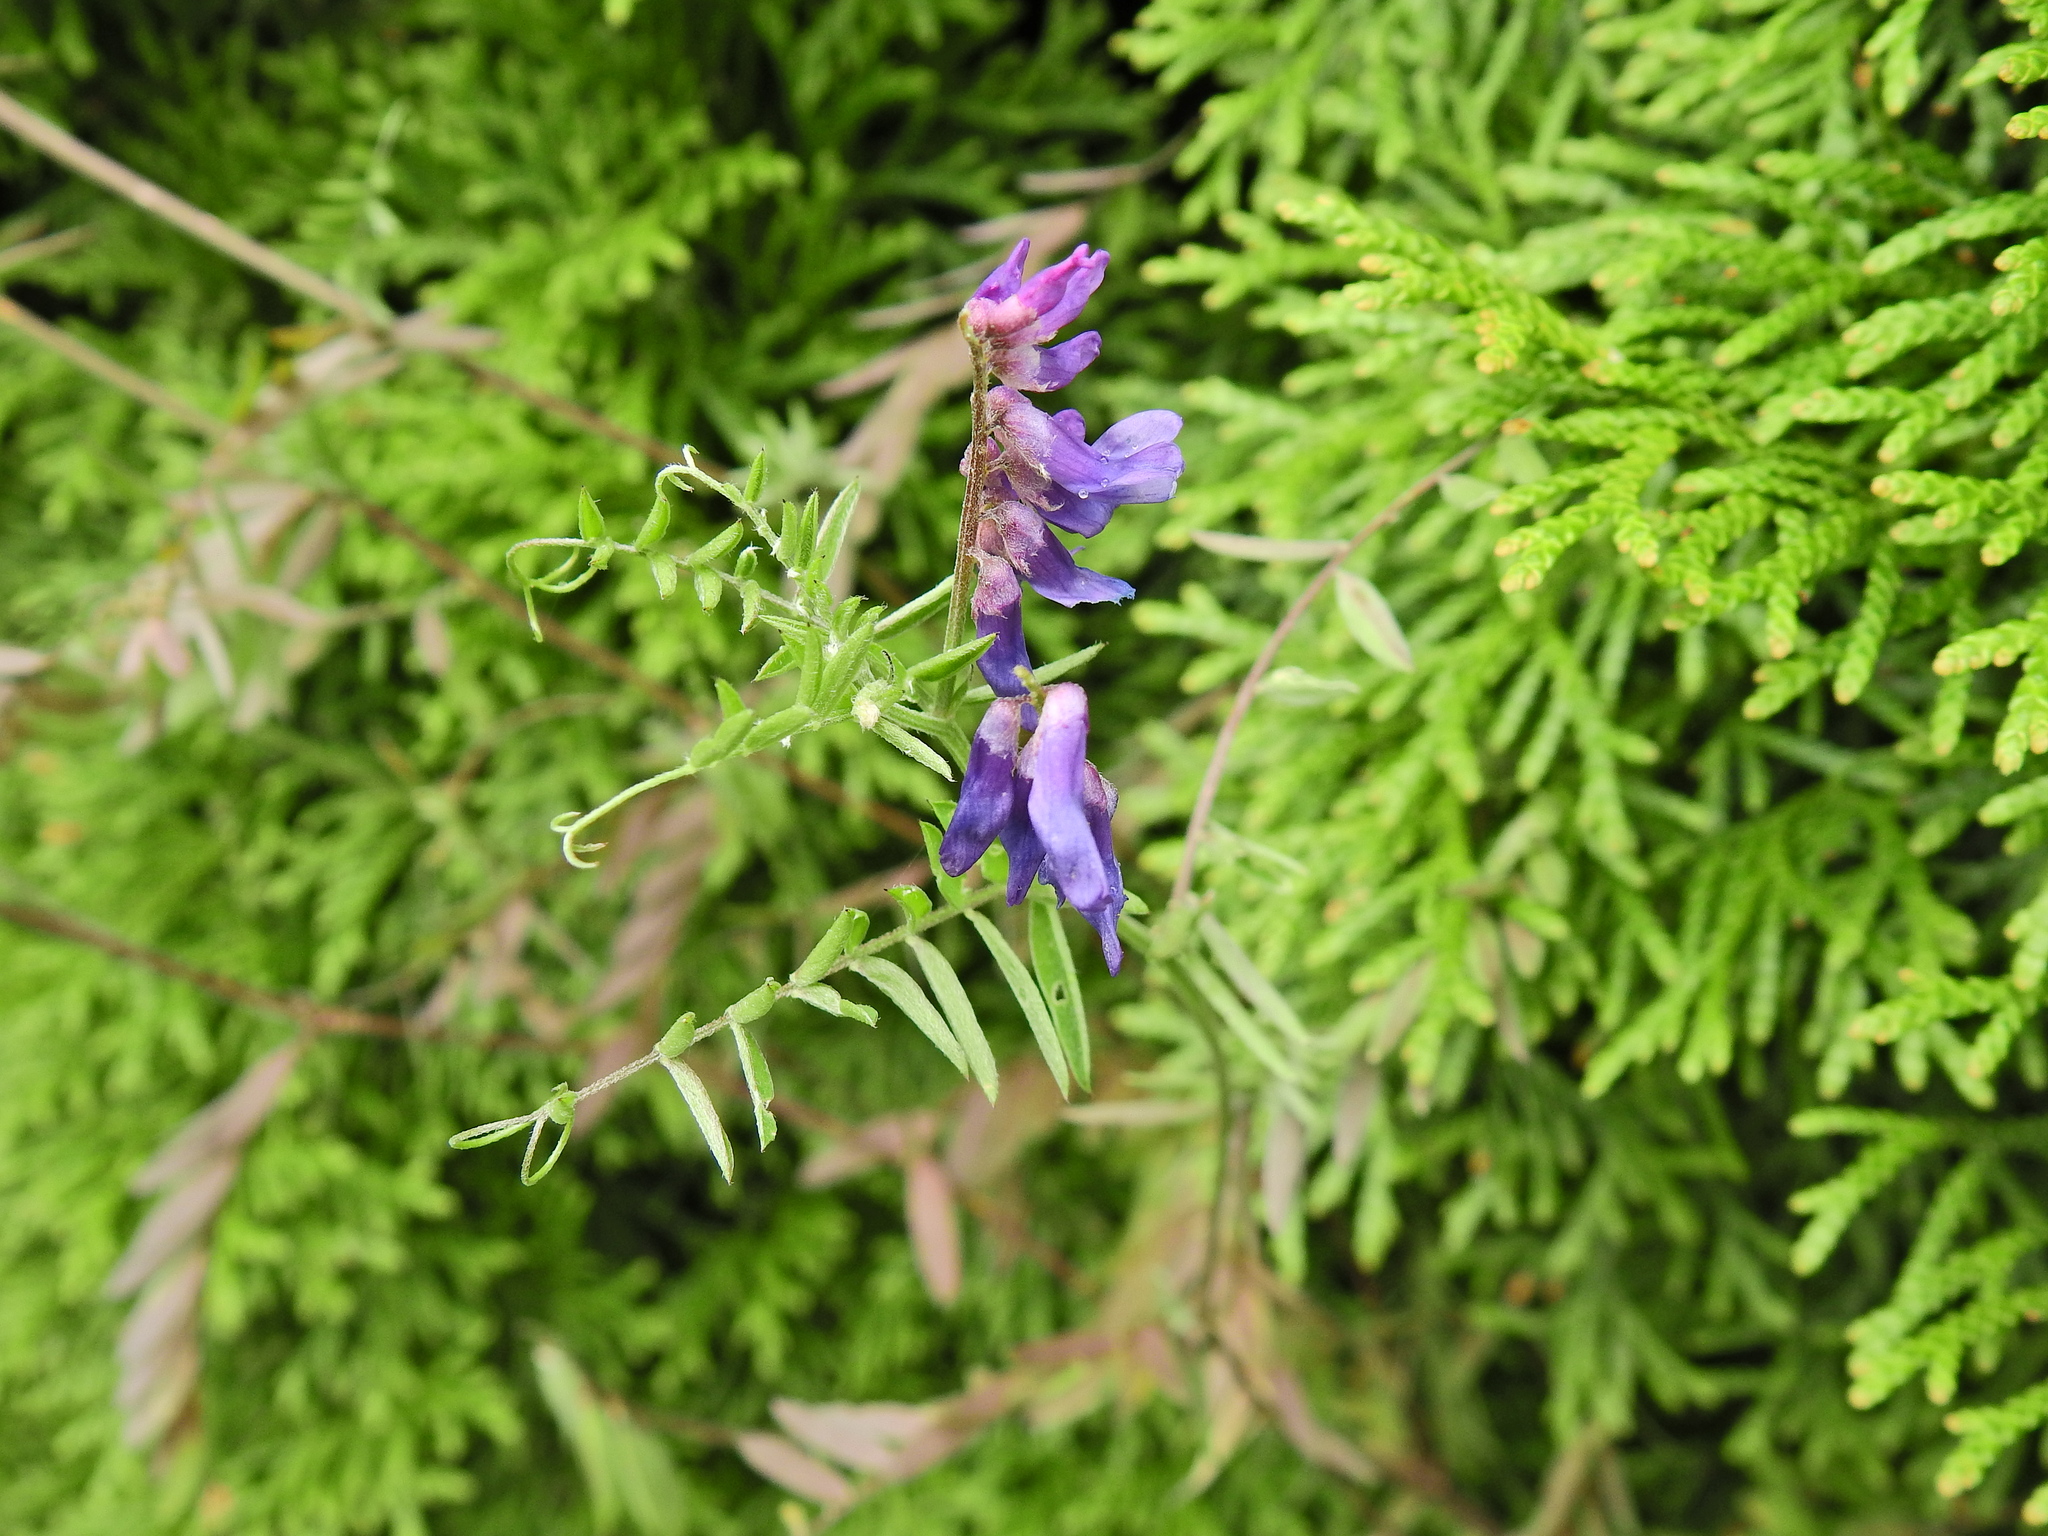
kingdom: Plantae
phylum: Tracheophyta
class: Magnoliopsida
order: Fabales
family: Fabaceae
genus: Vicia
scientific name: Vicia cracca
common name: Bird vetch
